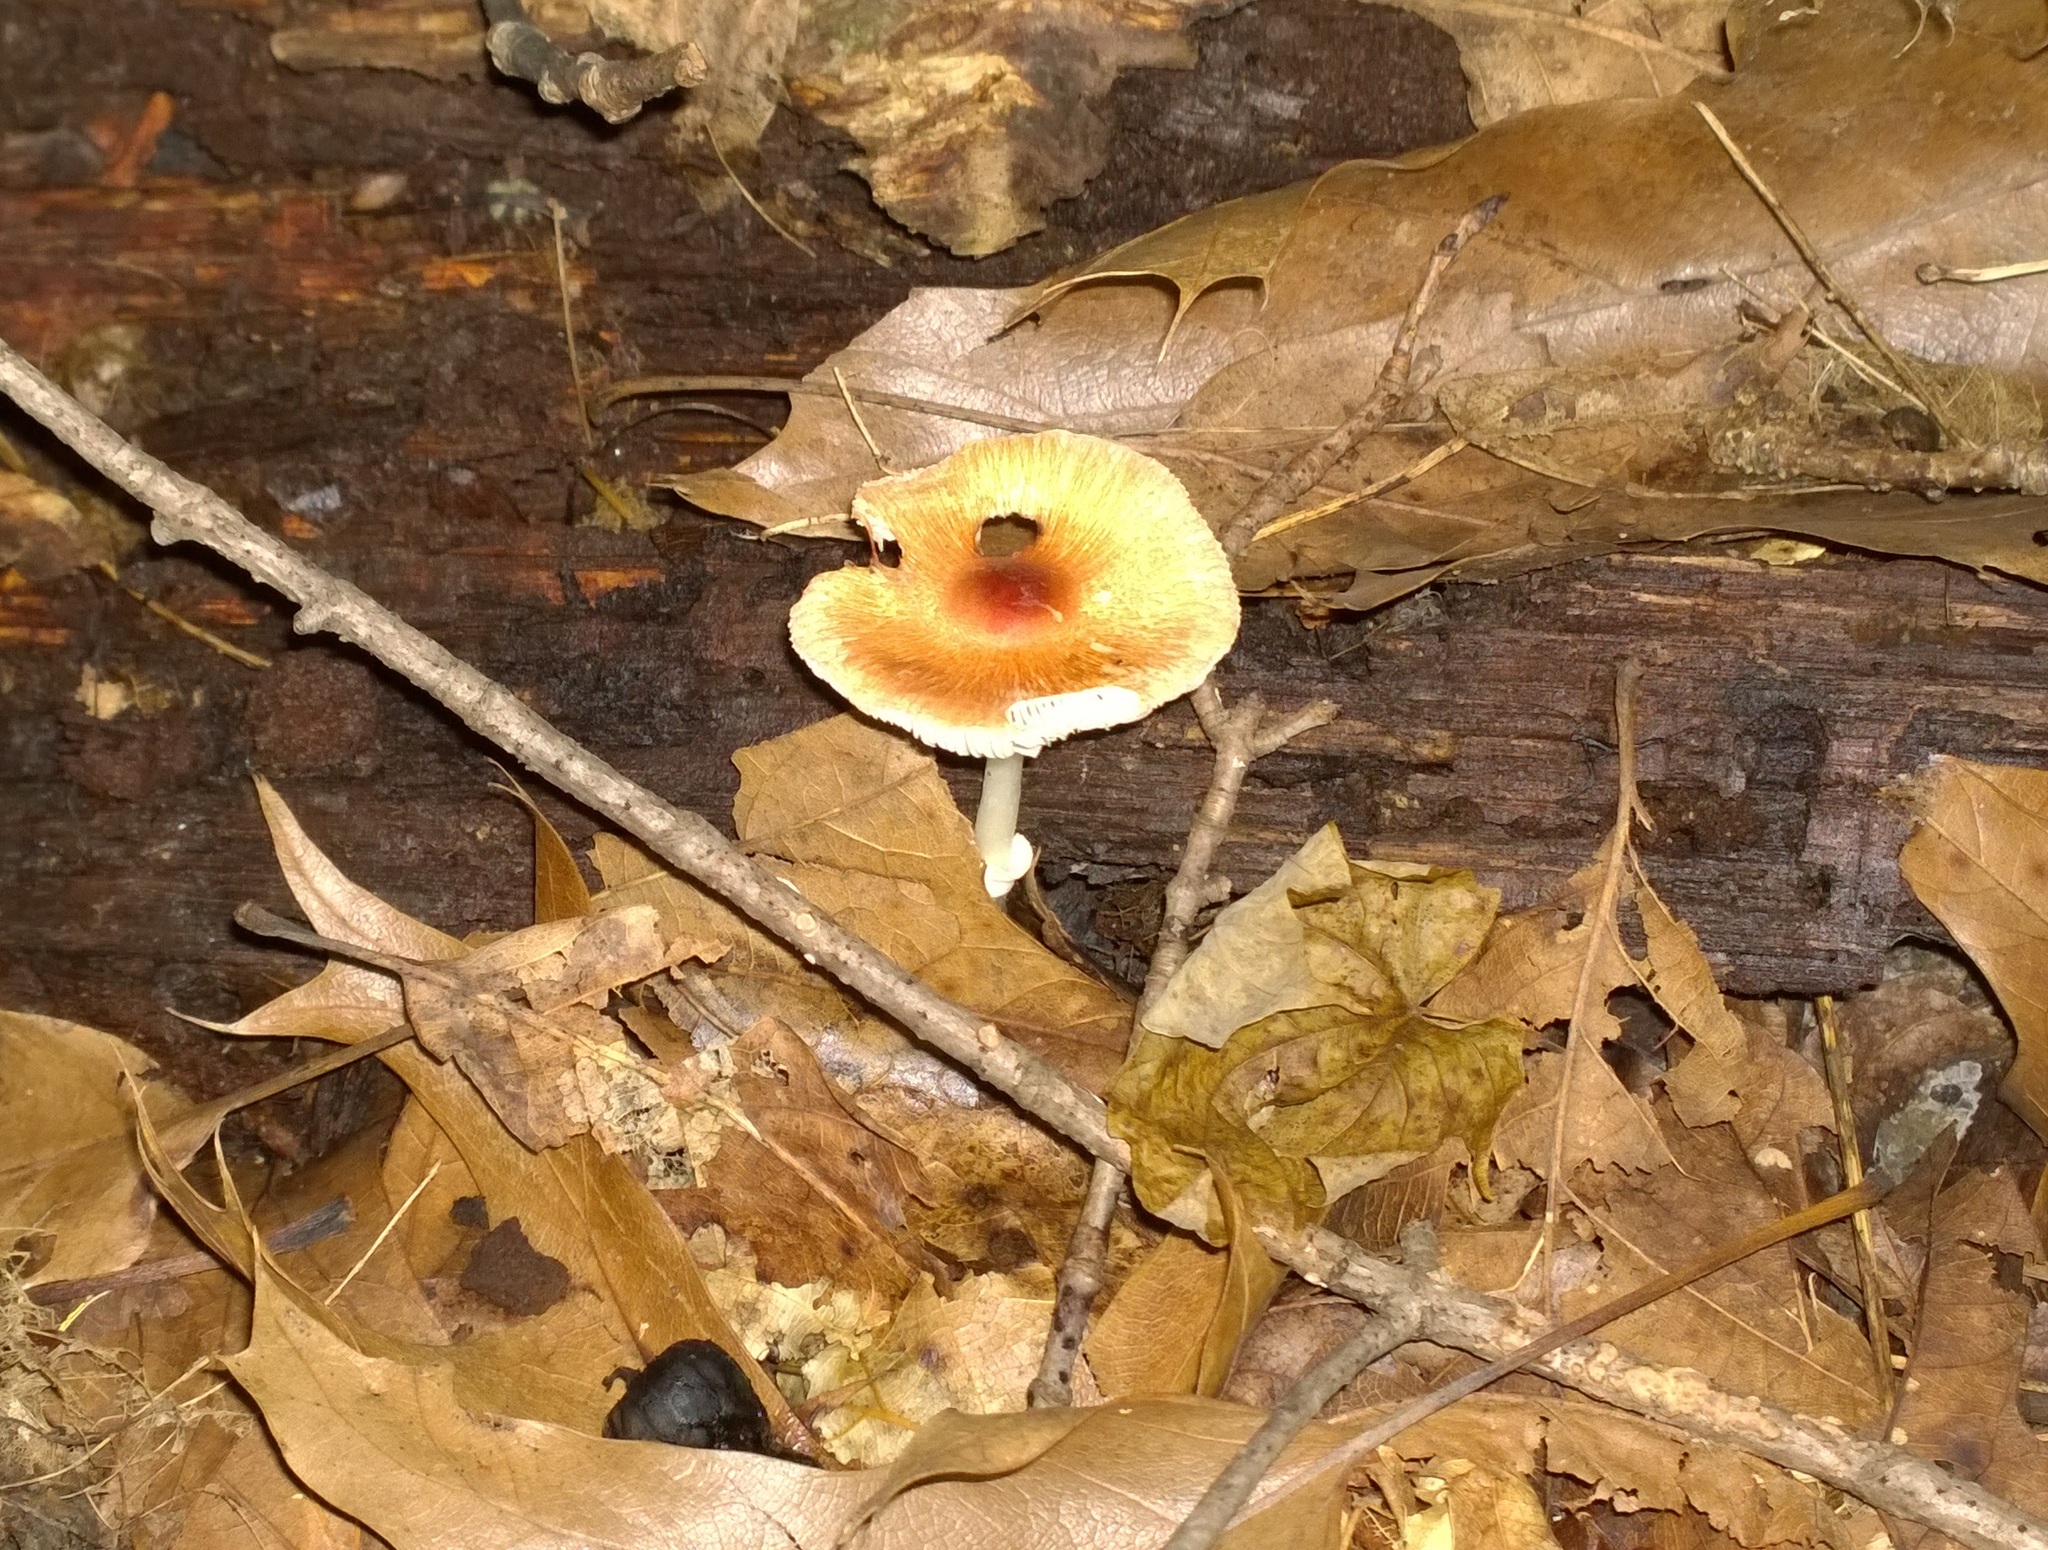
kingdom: Fungi
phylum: Basidiomycota
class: Agaricomycetes
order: Agaricales
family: Agaricaceae
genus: Leucoagaricus
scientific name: Leucoagaricus rubrotinctus
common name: Ruby dapperling
